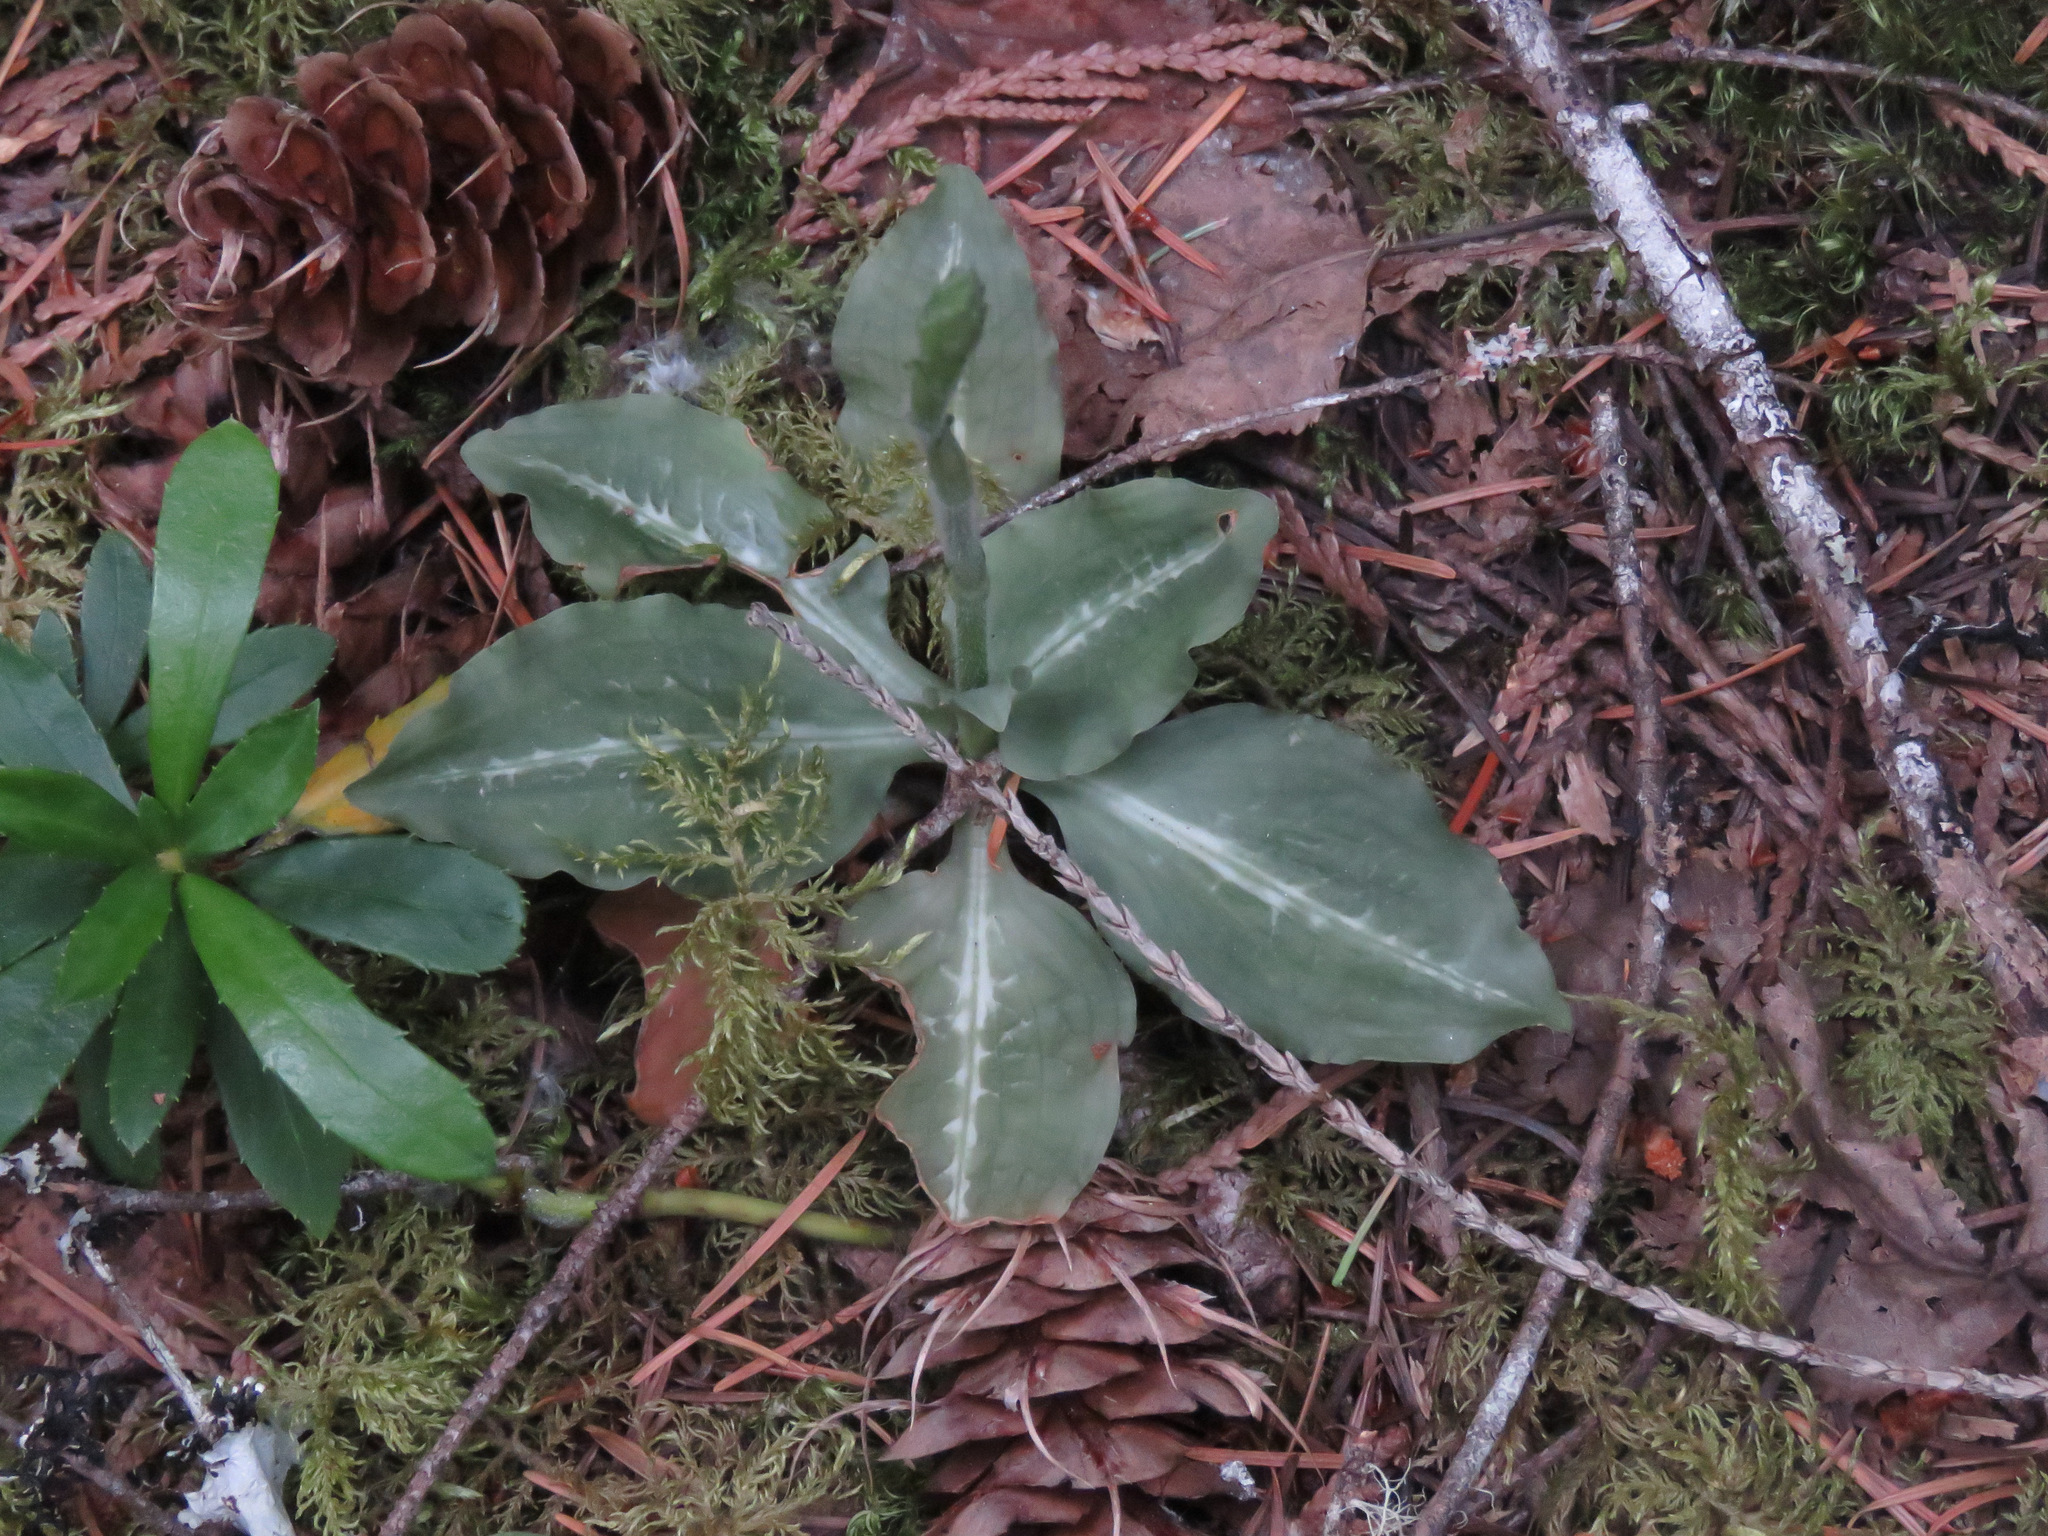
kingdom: Plantae
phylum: Tracheophyta
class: Liliopsida
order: Asparagales
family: Orchidaceae
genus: Goodyera
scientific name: Goodyera oblongifolia
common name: Giant rattlesnake-plantain
